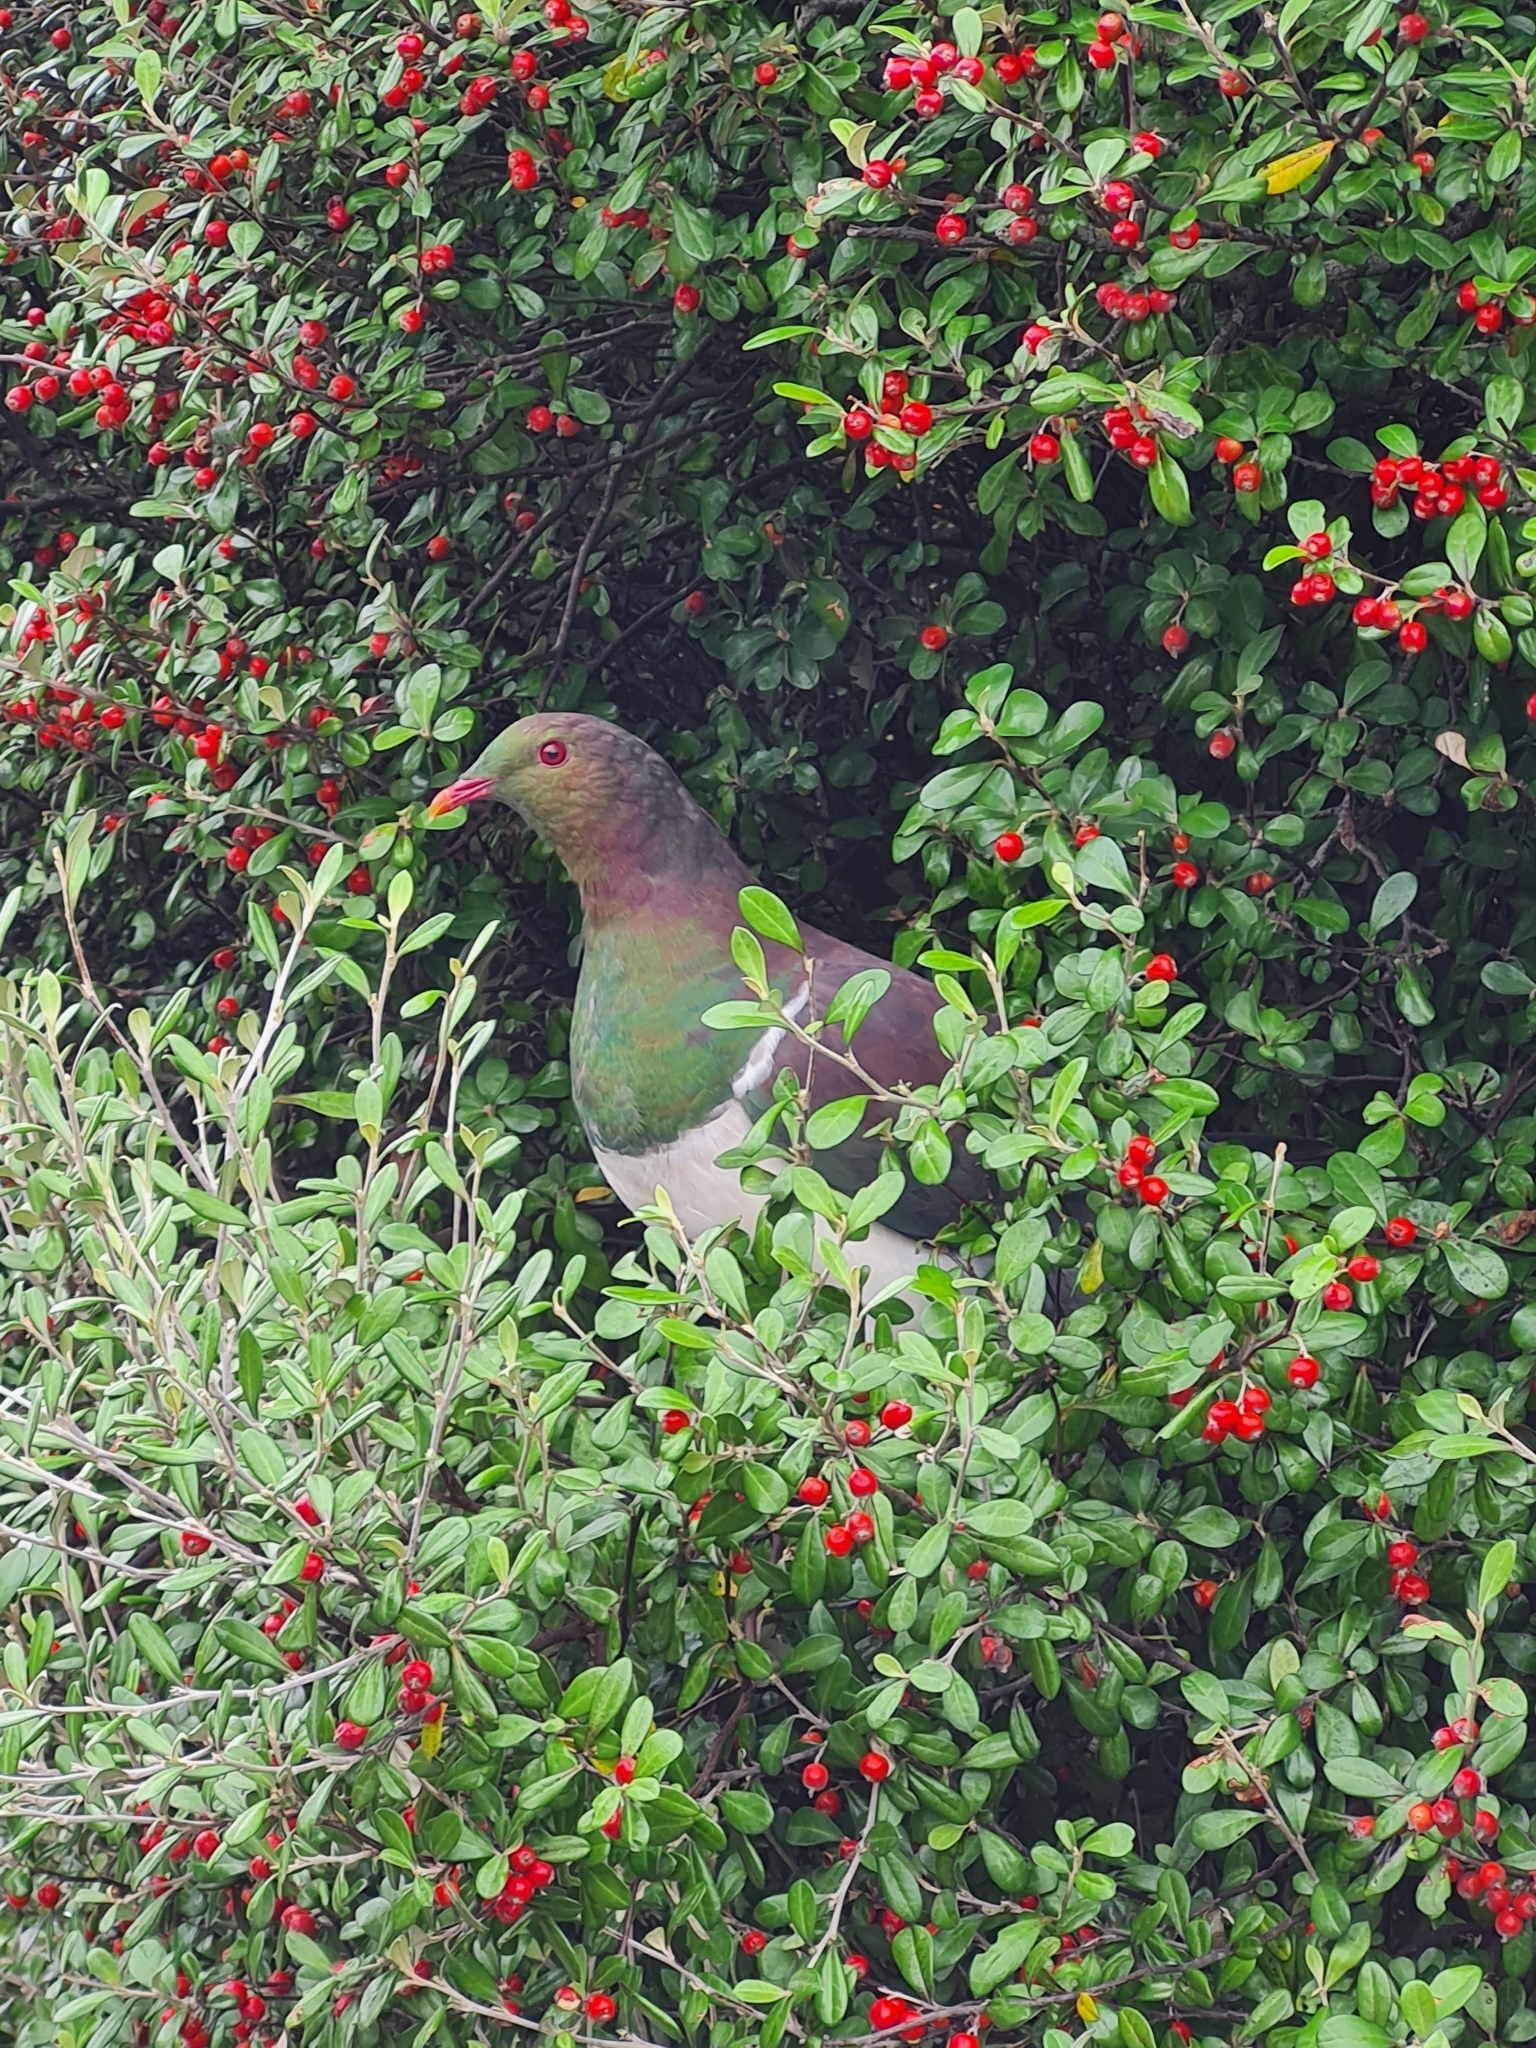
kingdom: Animalia
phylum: Chordata
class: Aves
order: Columbiformes
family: Columbidae
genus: Hemiphaga
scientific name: Hemiphaga novaeseelandiae
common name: New zealand pigeon
